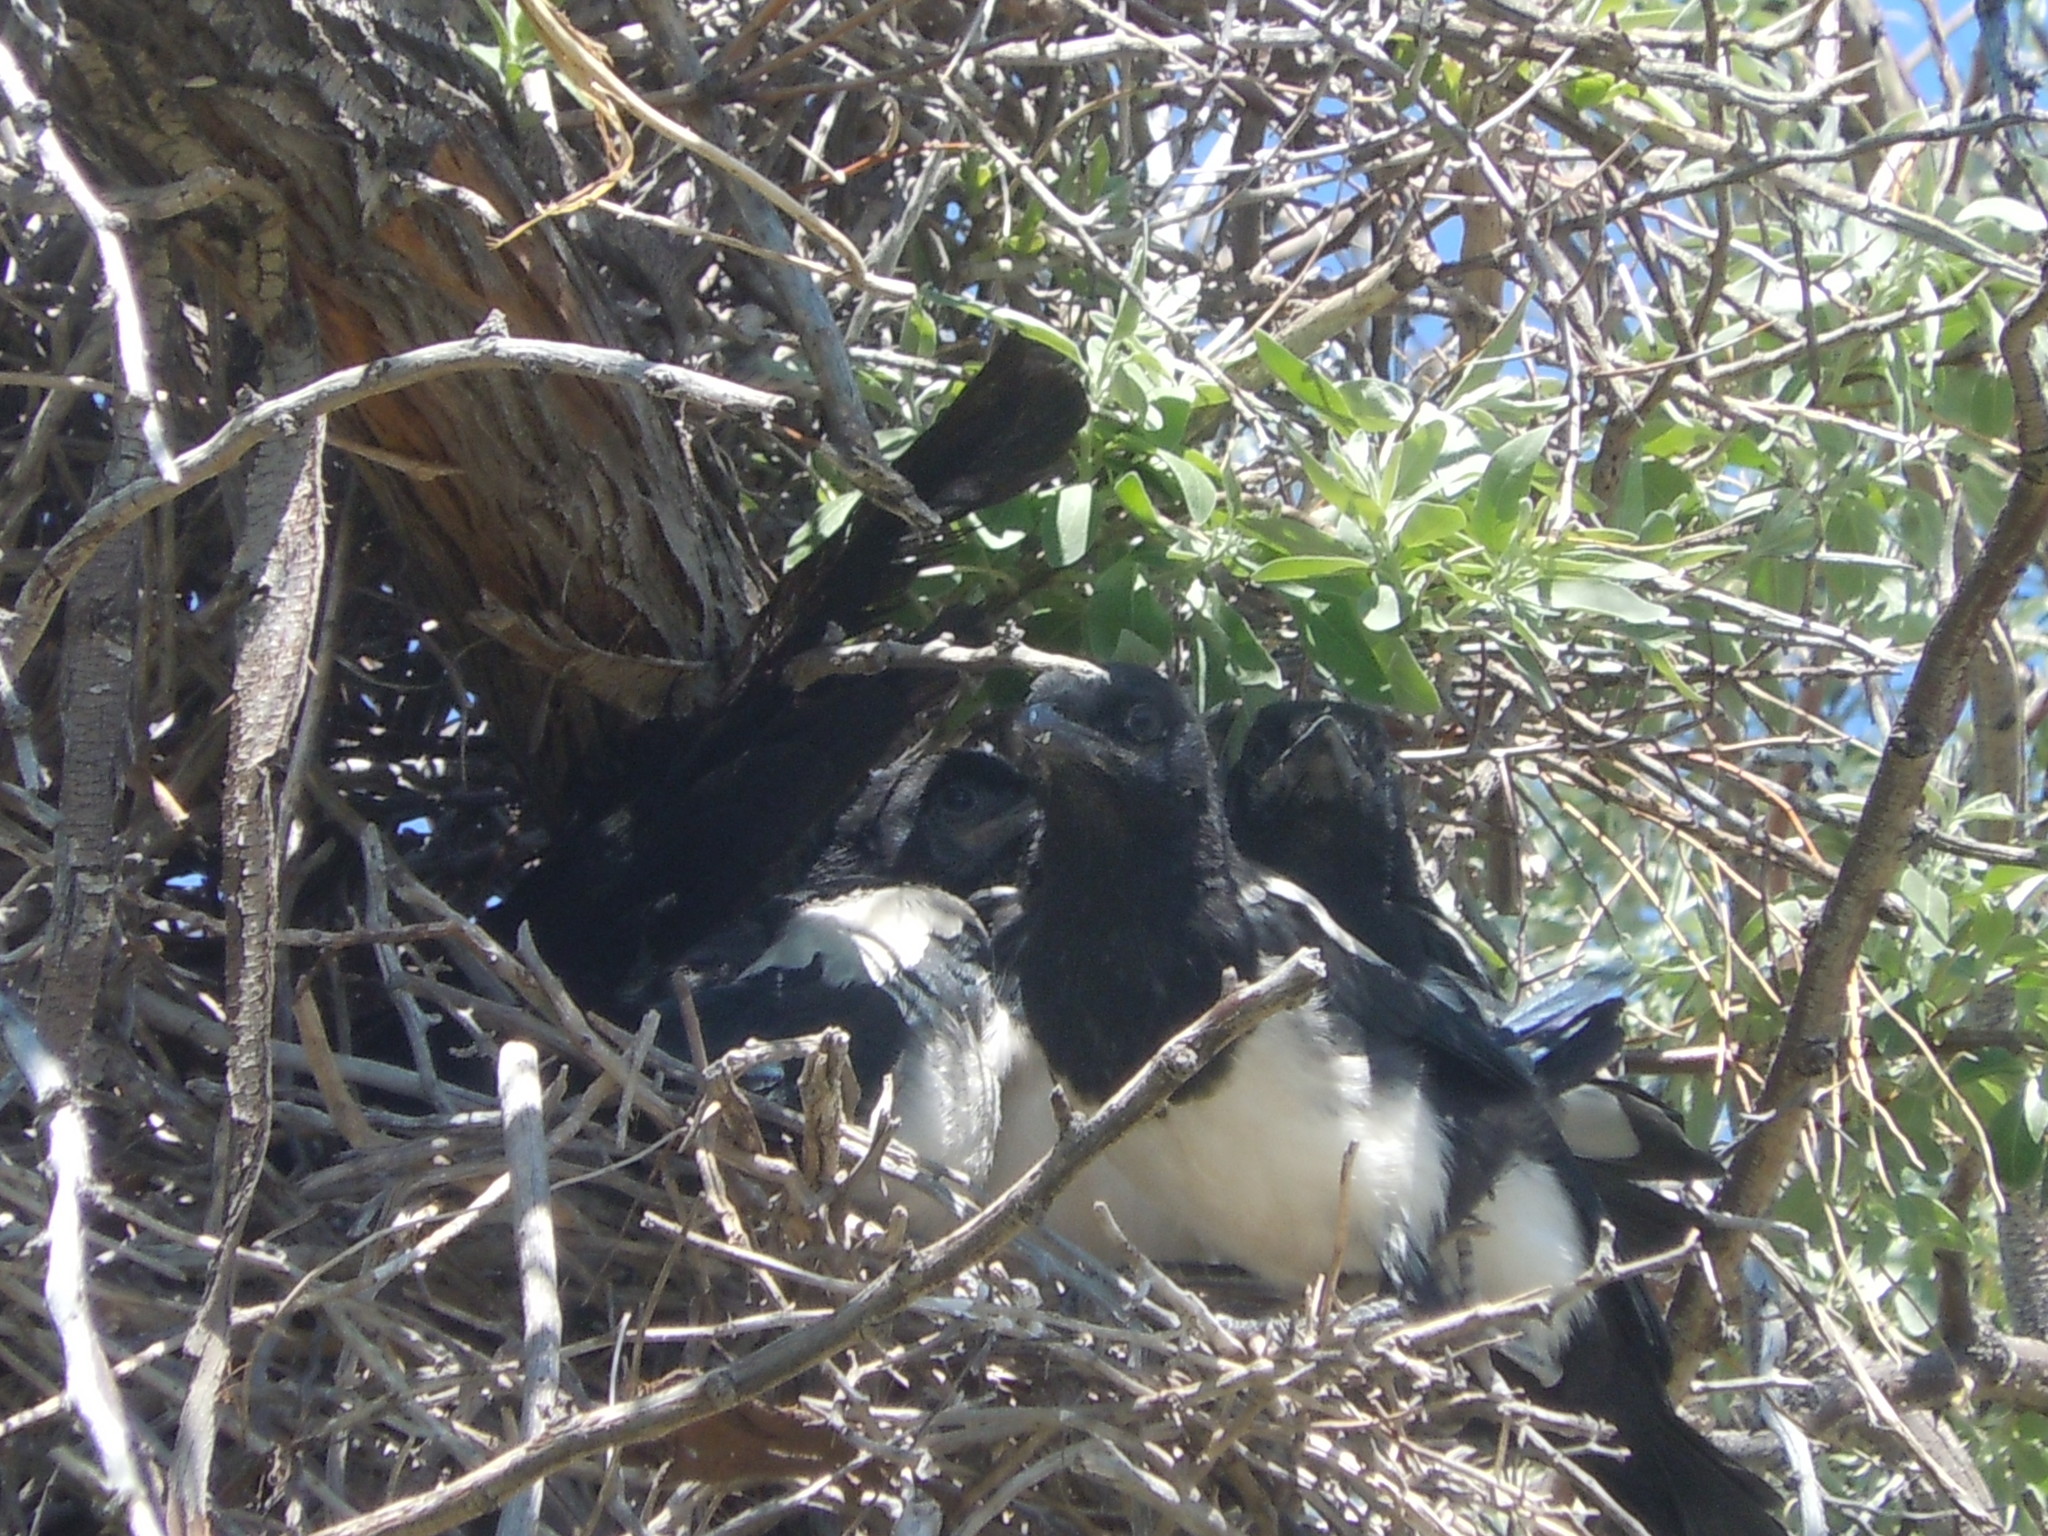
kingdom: Animalia
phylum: Chordata
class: Aves
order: Passeriformes
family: Corvidae
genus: Pica
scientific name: Pica hudsonia
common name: Black-billed magpie
